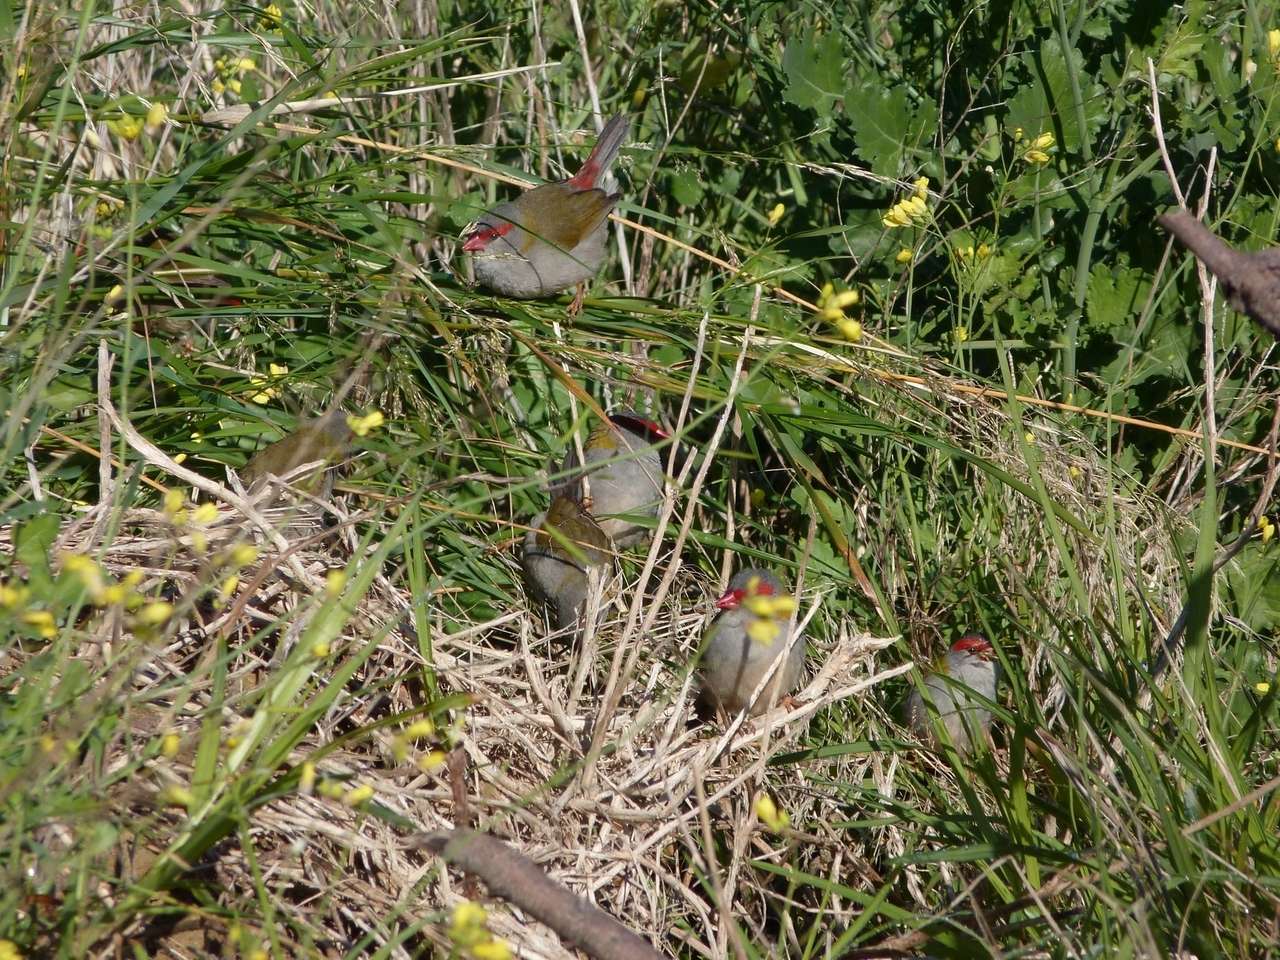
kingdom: Animalia
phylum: Chordata
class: Aves
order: Passeriformes
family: Estrildidae
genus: Neochmia
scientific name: Neochmia temporalis
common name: Red-browed finch
